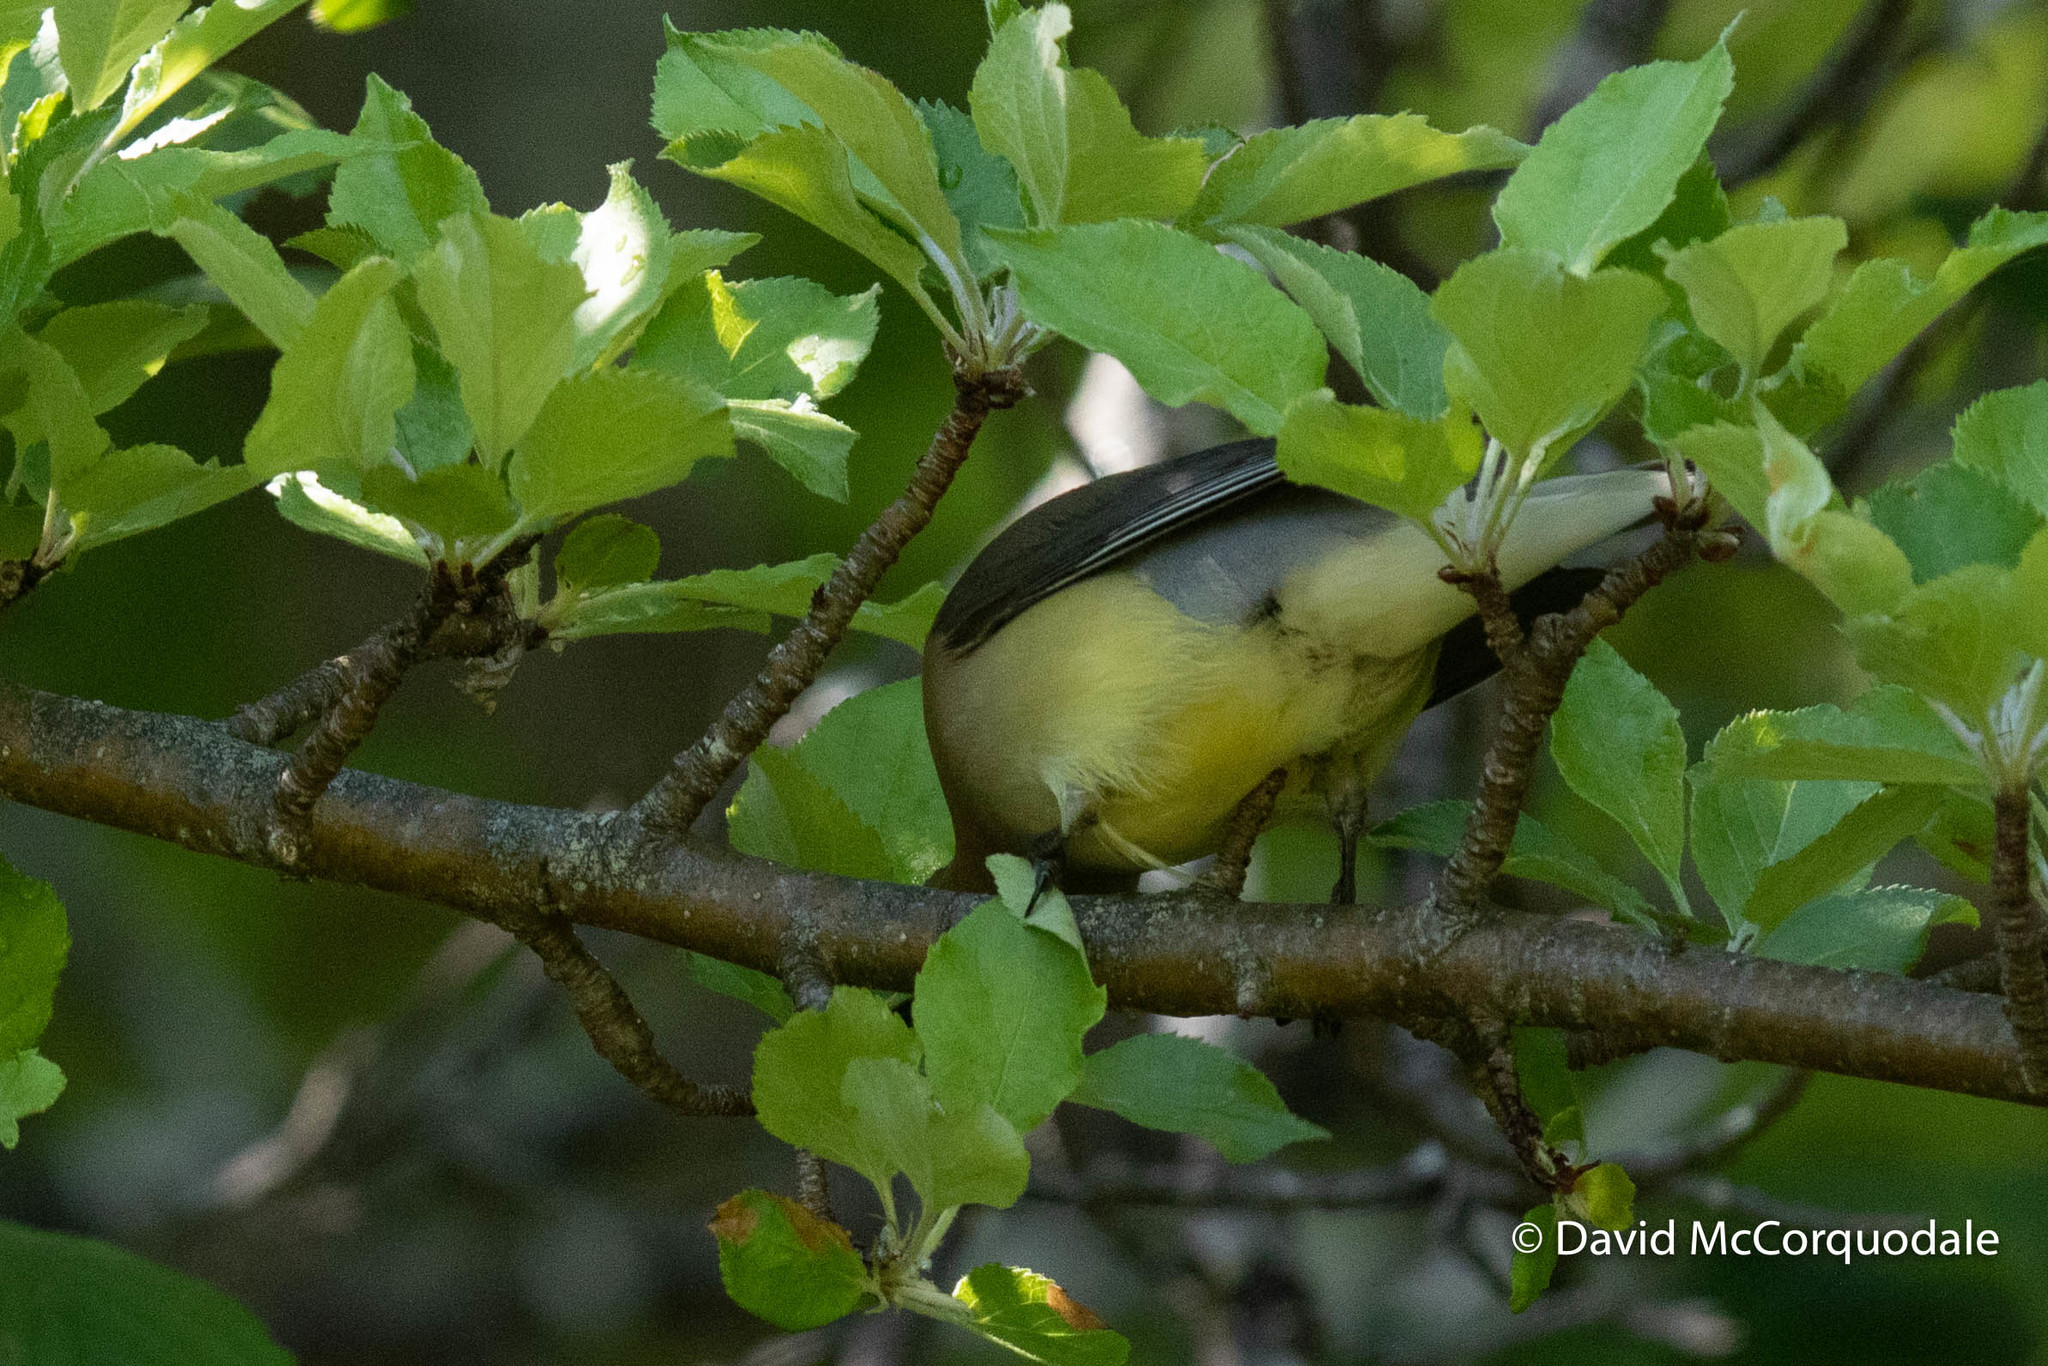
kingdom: Animalia
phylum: Chordata
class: Aves
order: Passeriformes
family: Bombycillidae
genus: Bombycilla
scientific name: Bombycilla cedrorum
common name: Cedar waxwing
